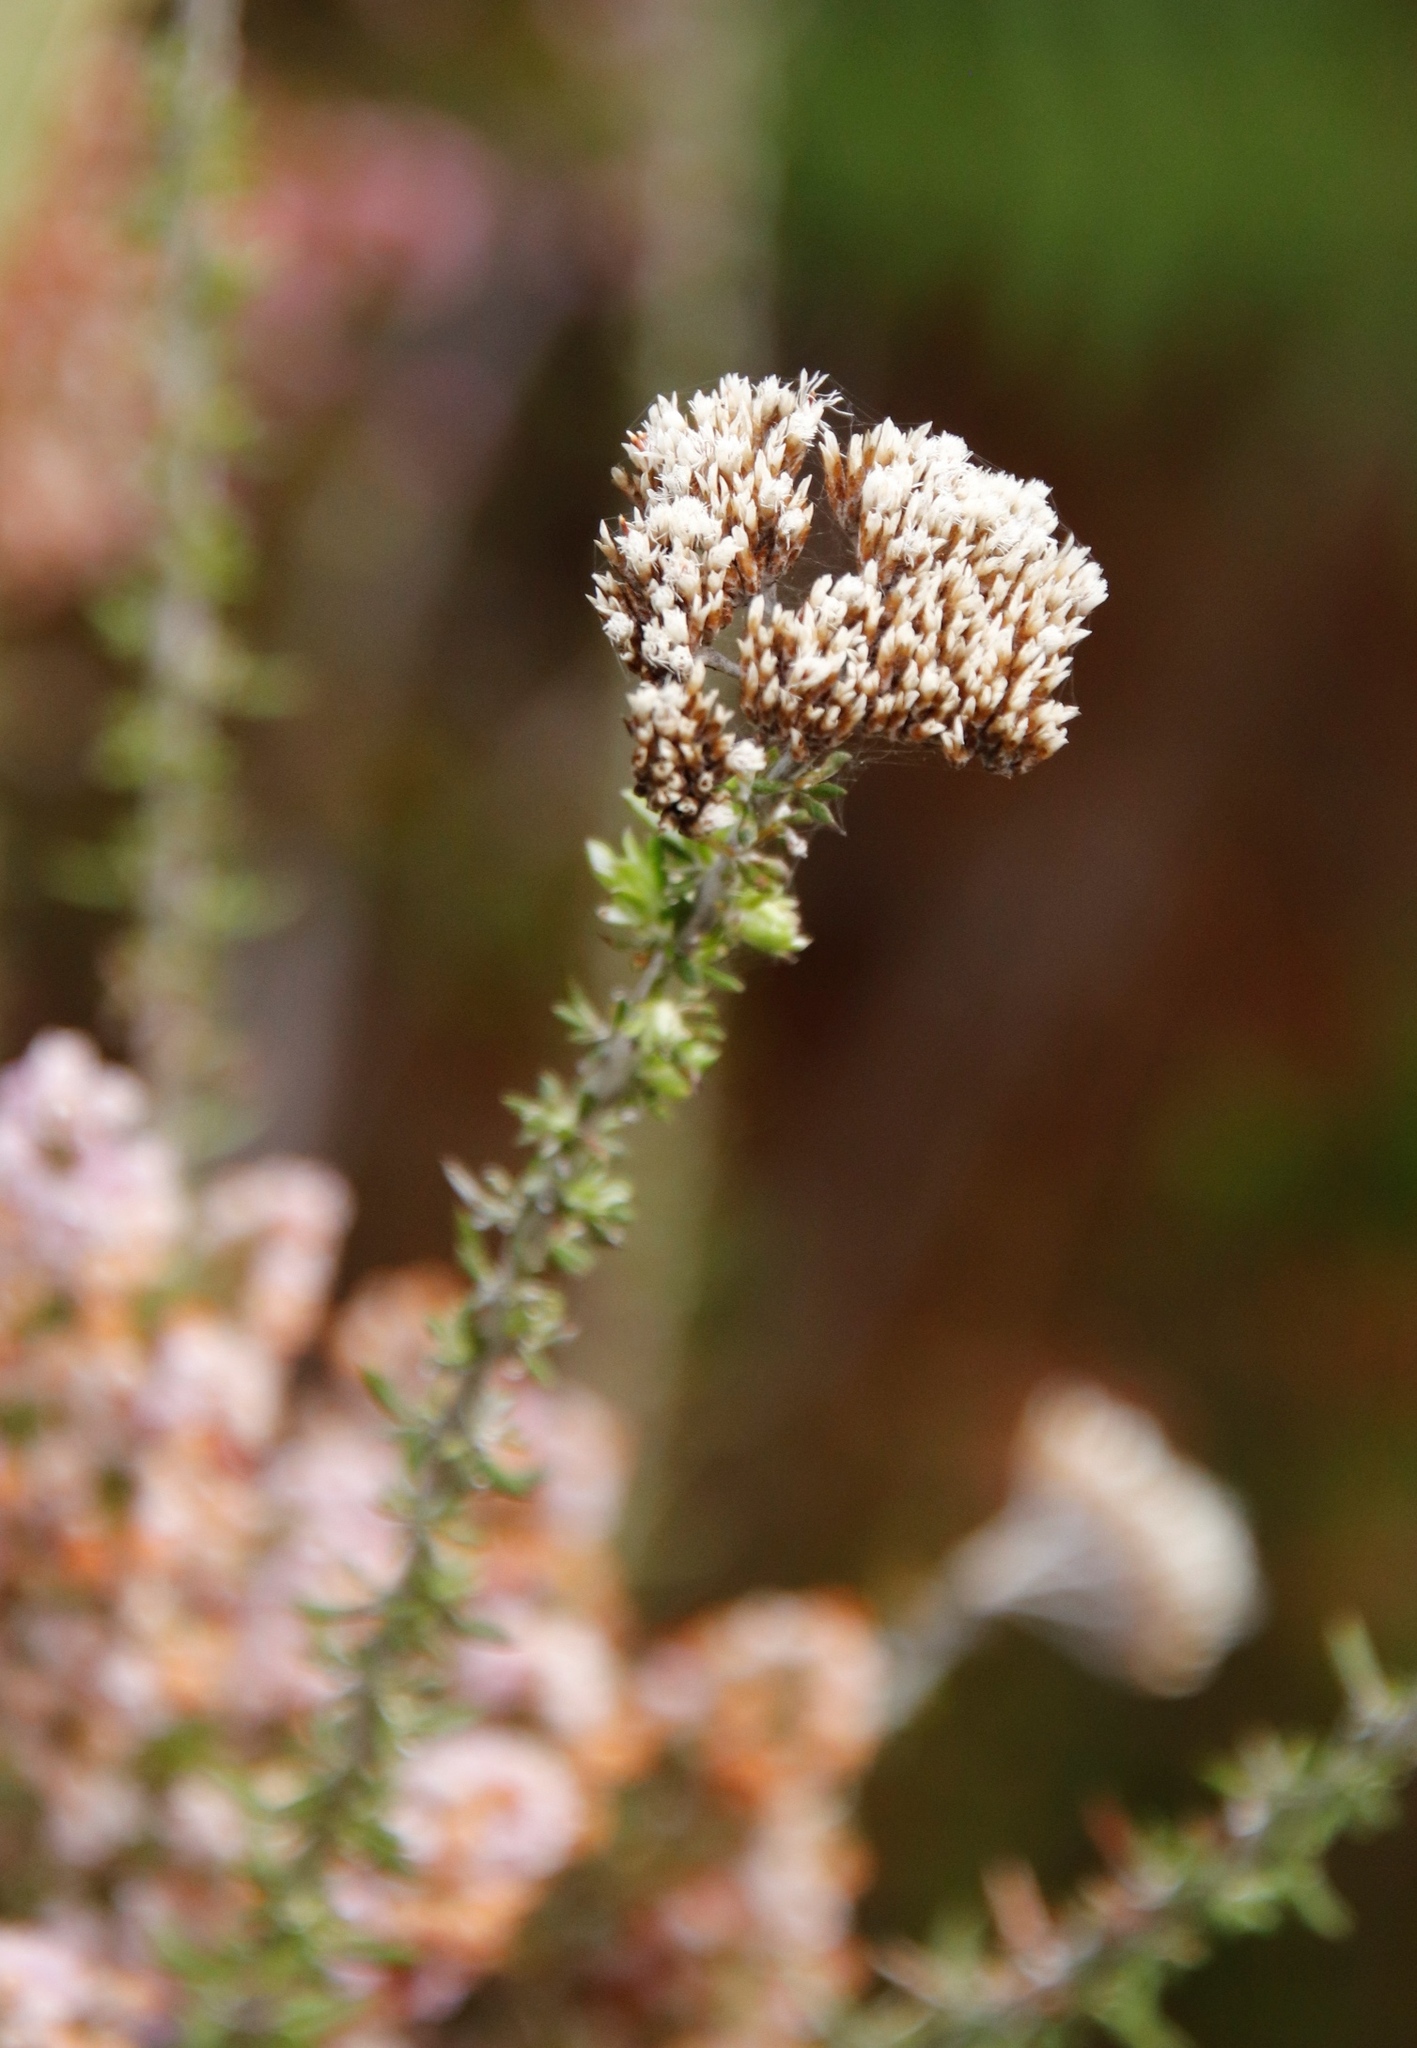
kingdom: Plantae
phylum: Tracheophyta
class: Magnoliopsida
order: Ericales
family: Ericaceae
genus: Erica
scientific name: Erica mauritanica
